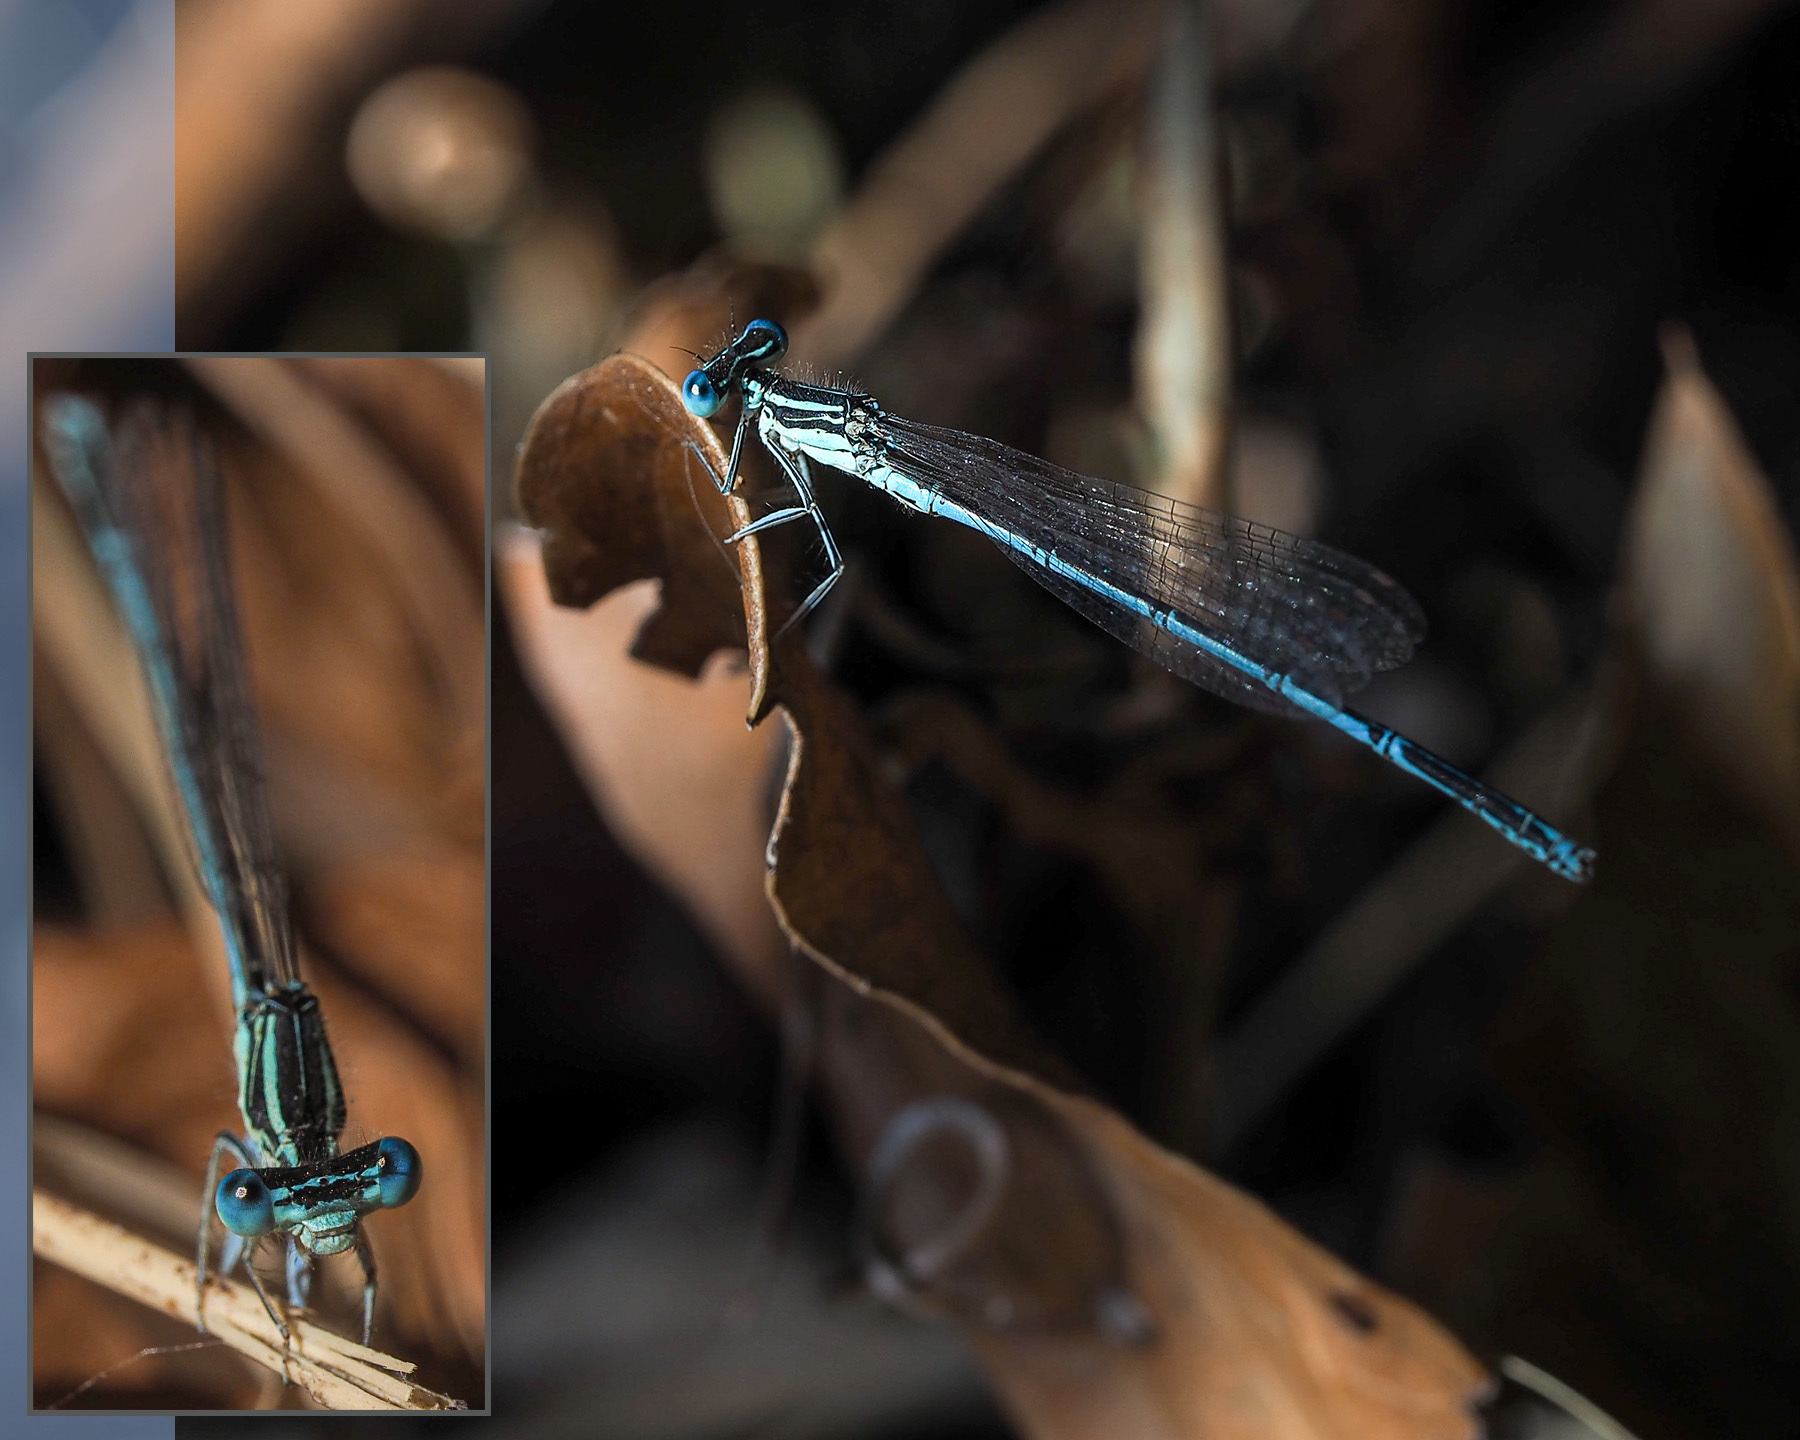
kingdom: Animalia
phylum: Arthropoda
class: Insecta
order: Odonata
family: Platycnemididae
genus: Platycnemis
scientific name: Platycnemis pennipes
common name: White-legged damselfly
